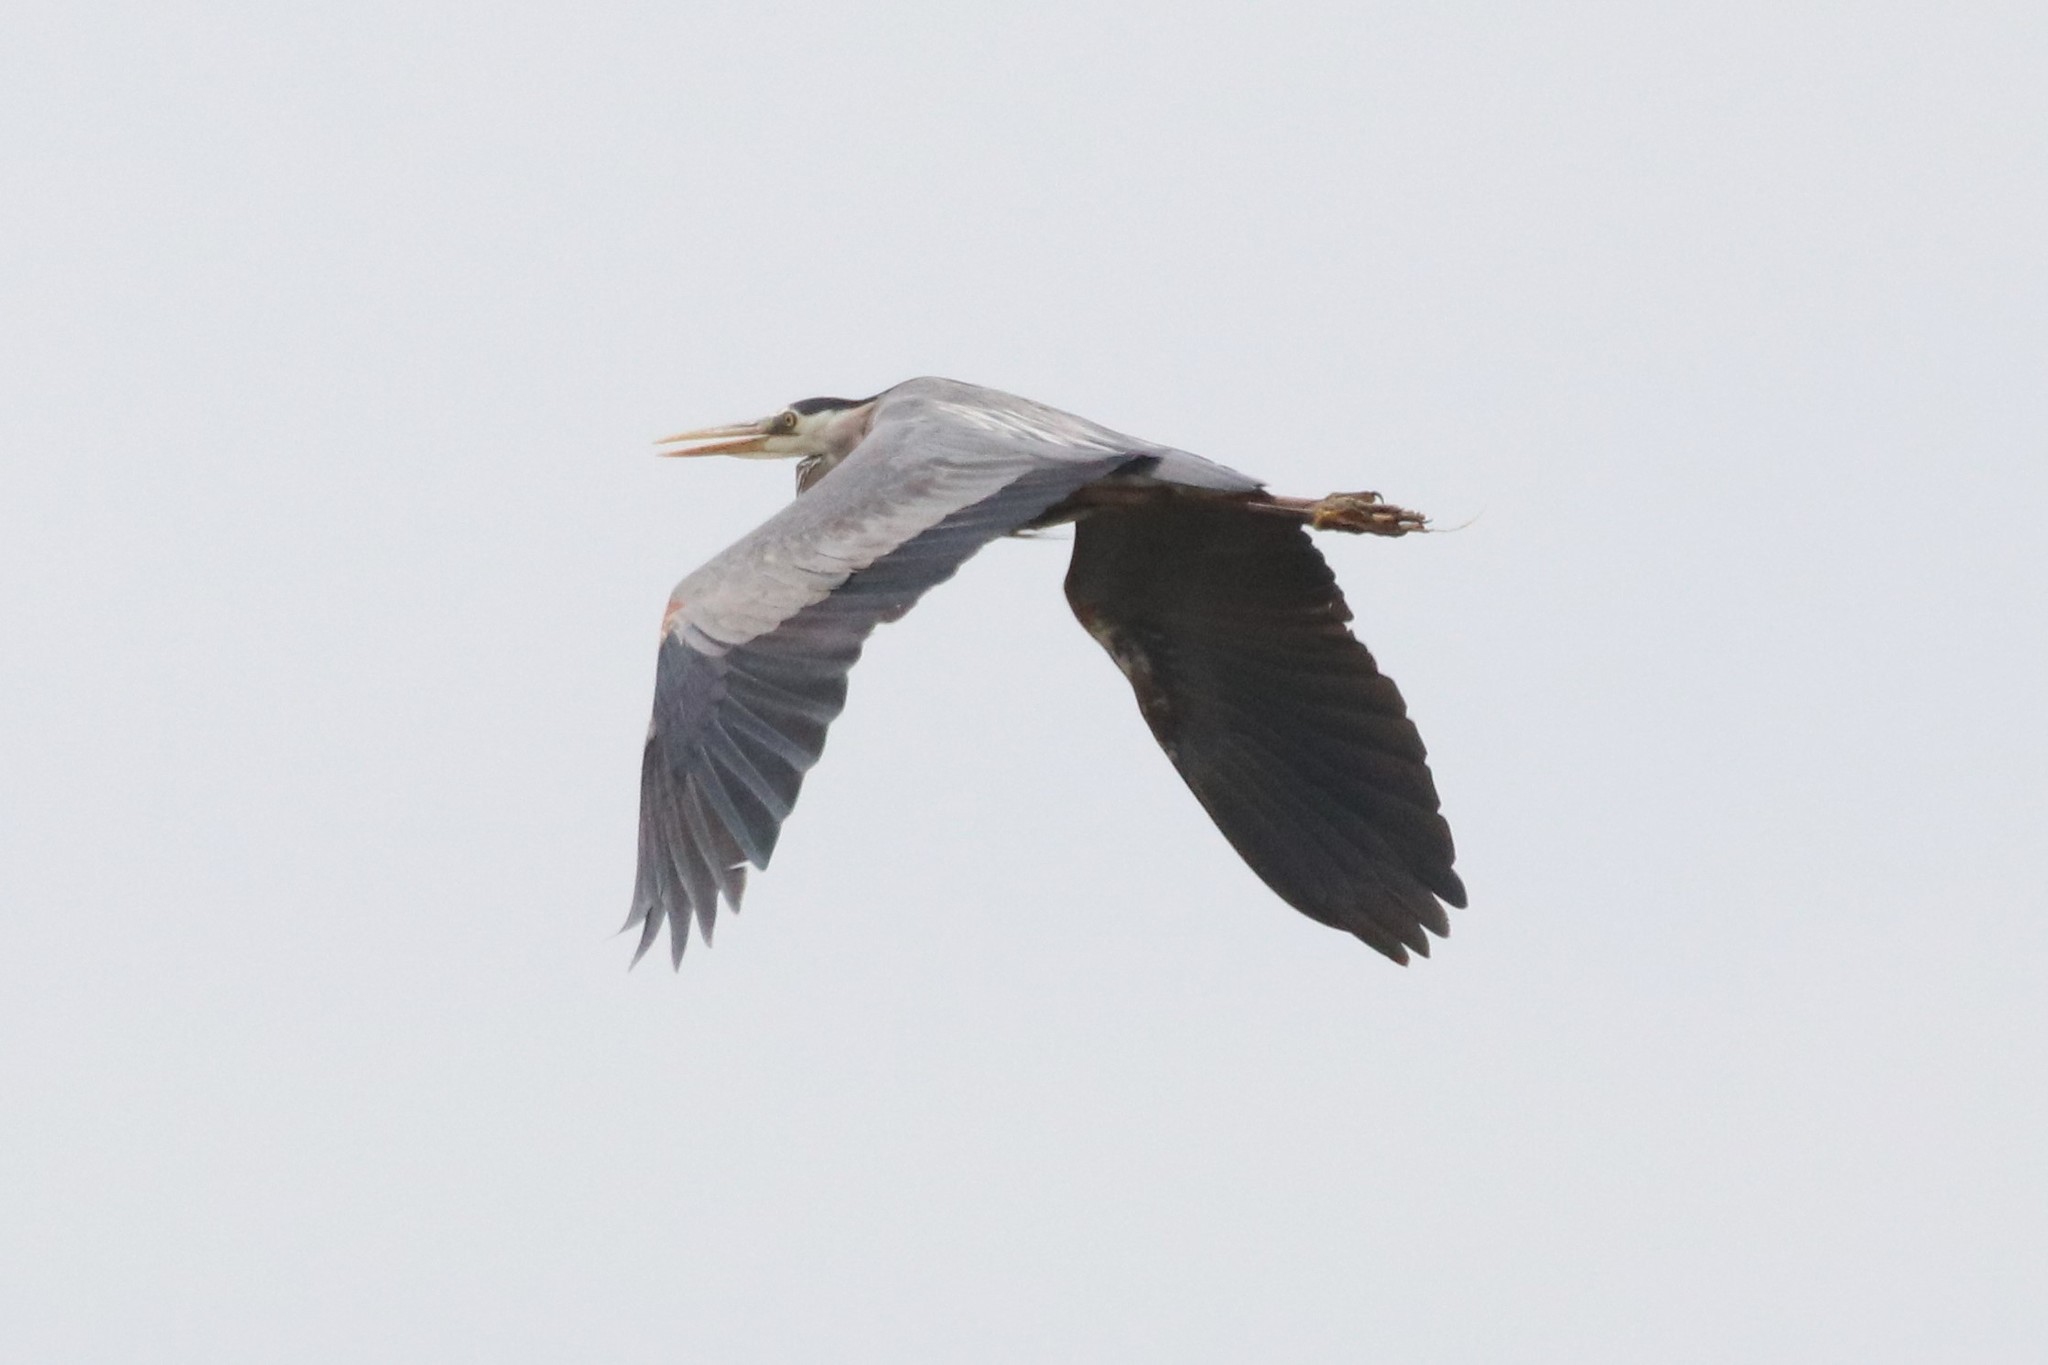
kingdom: Animalia
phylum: Chordata
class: Aves
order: Pelecaniformes
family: Ardeidae
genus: Ardea
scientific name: Ardea herodias
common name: Great blue heron
